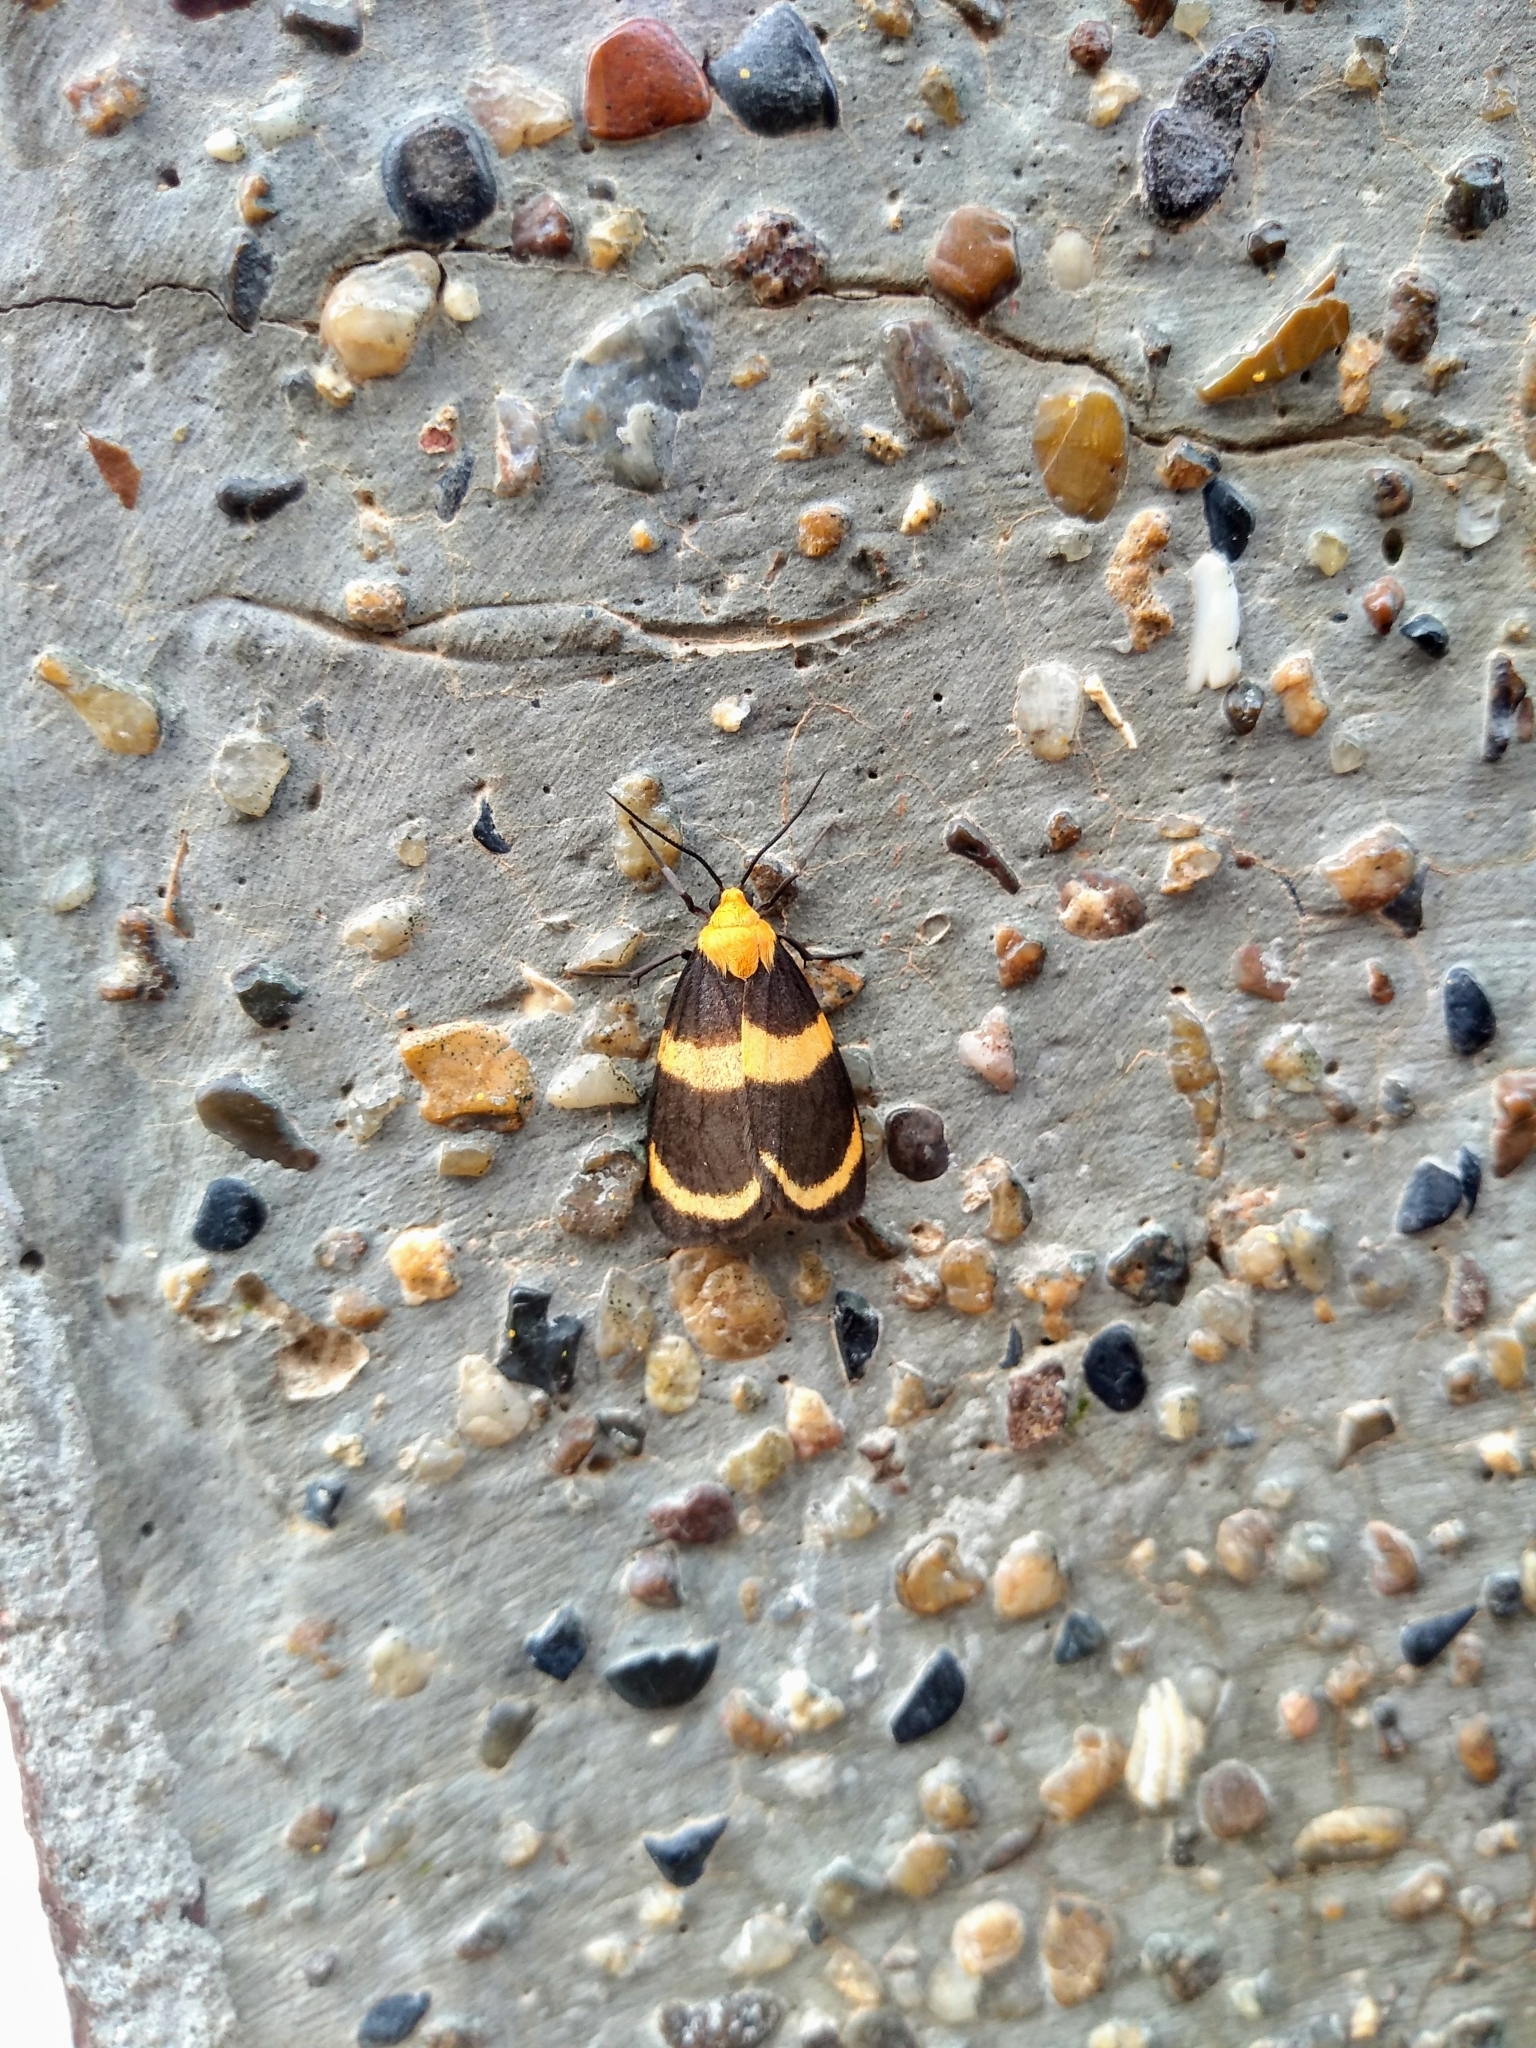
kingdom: Animalia
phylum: Arthropoda
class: Insecta
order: Lepidoptera
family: Erebidae
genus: Eudesmia
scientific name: Eudesmia menea
